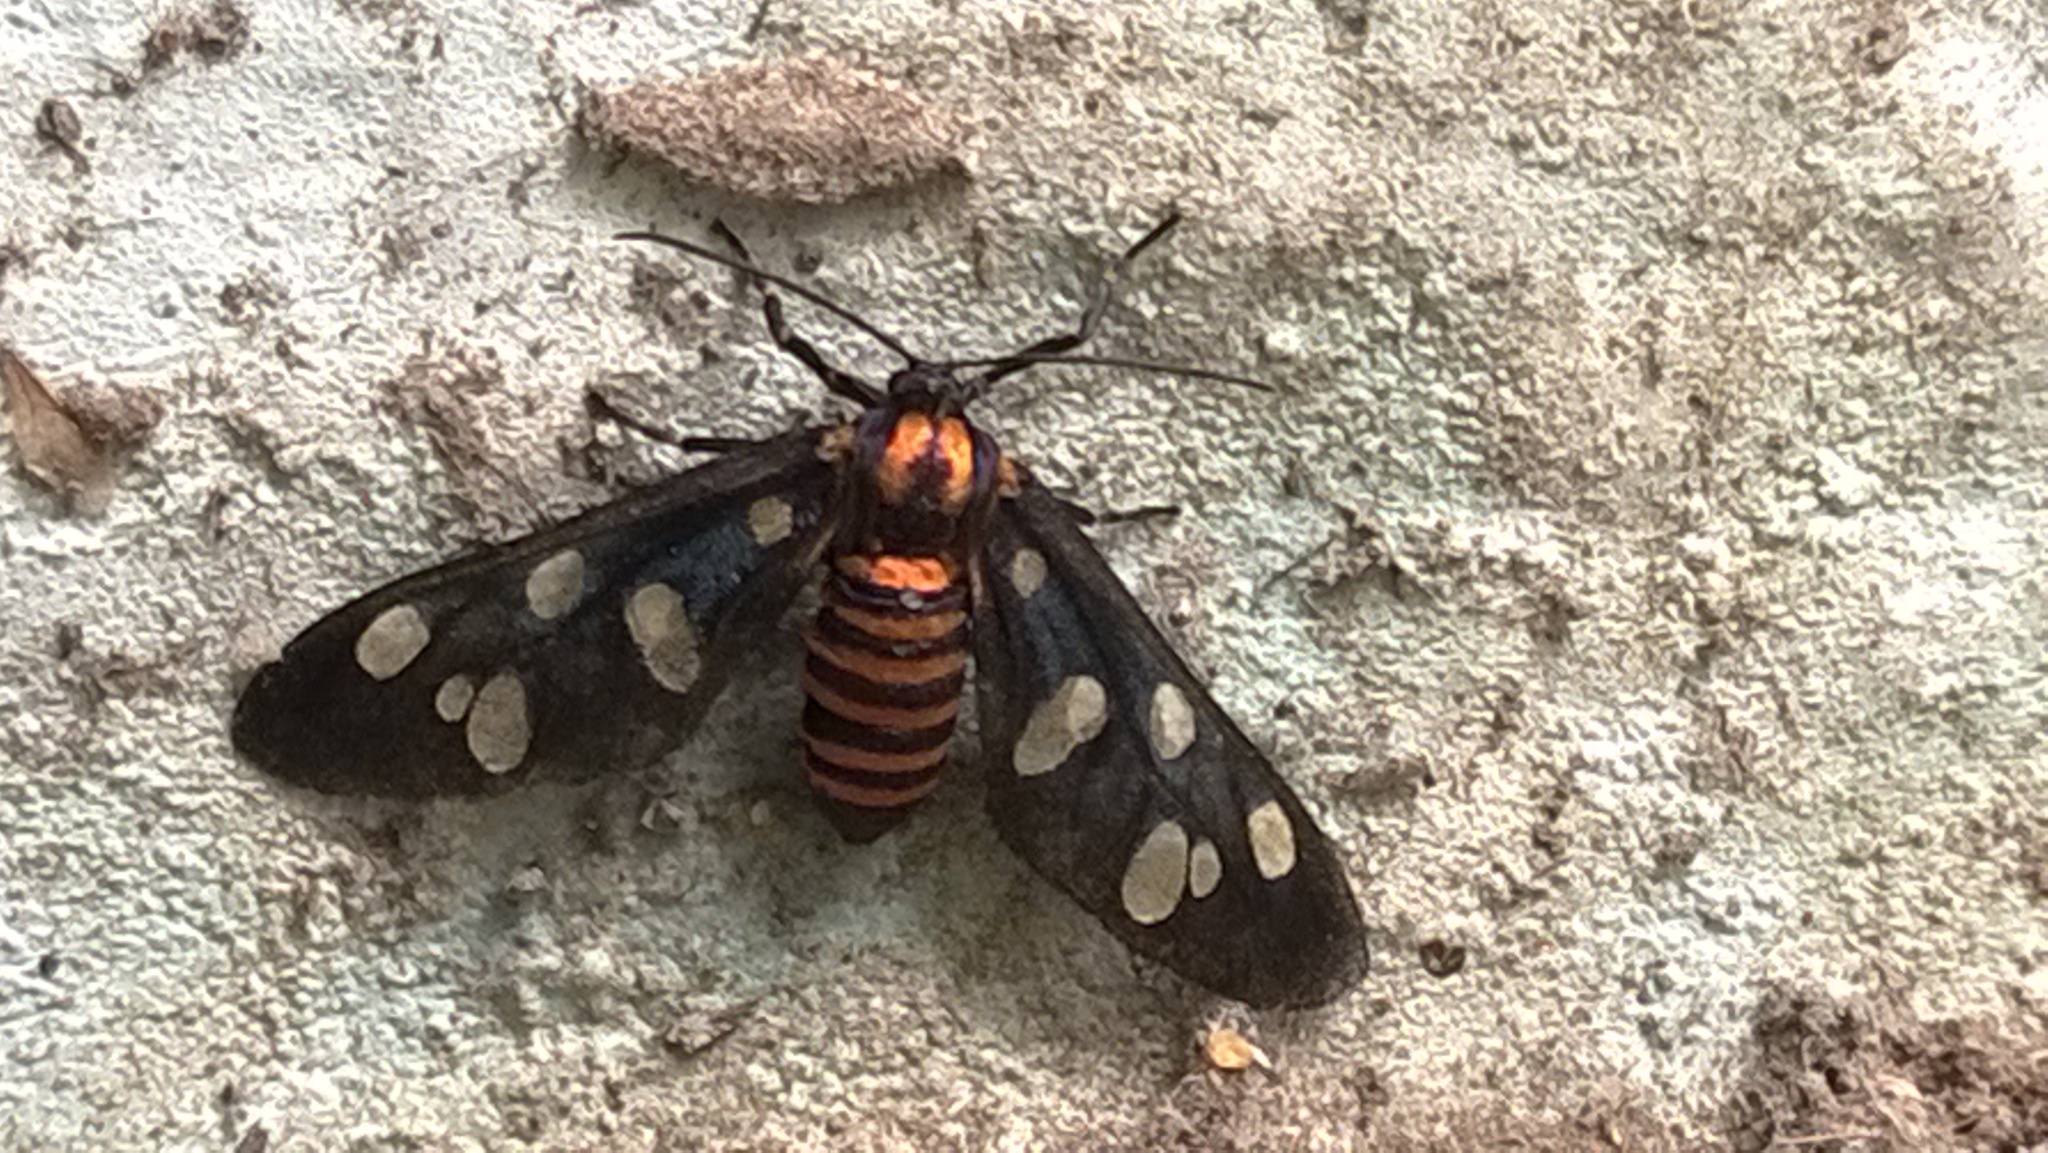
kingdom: Animalia
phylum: Arthropoda
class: Insecta
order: Lepidoptera
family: Erebidae
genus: Amata
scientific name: Amata passalis
